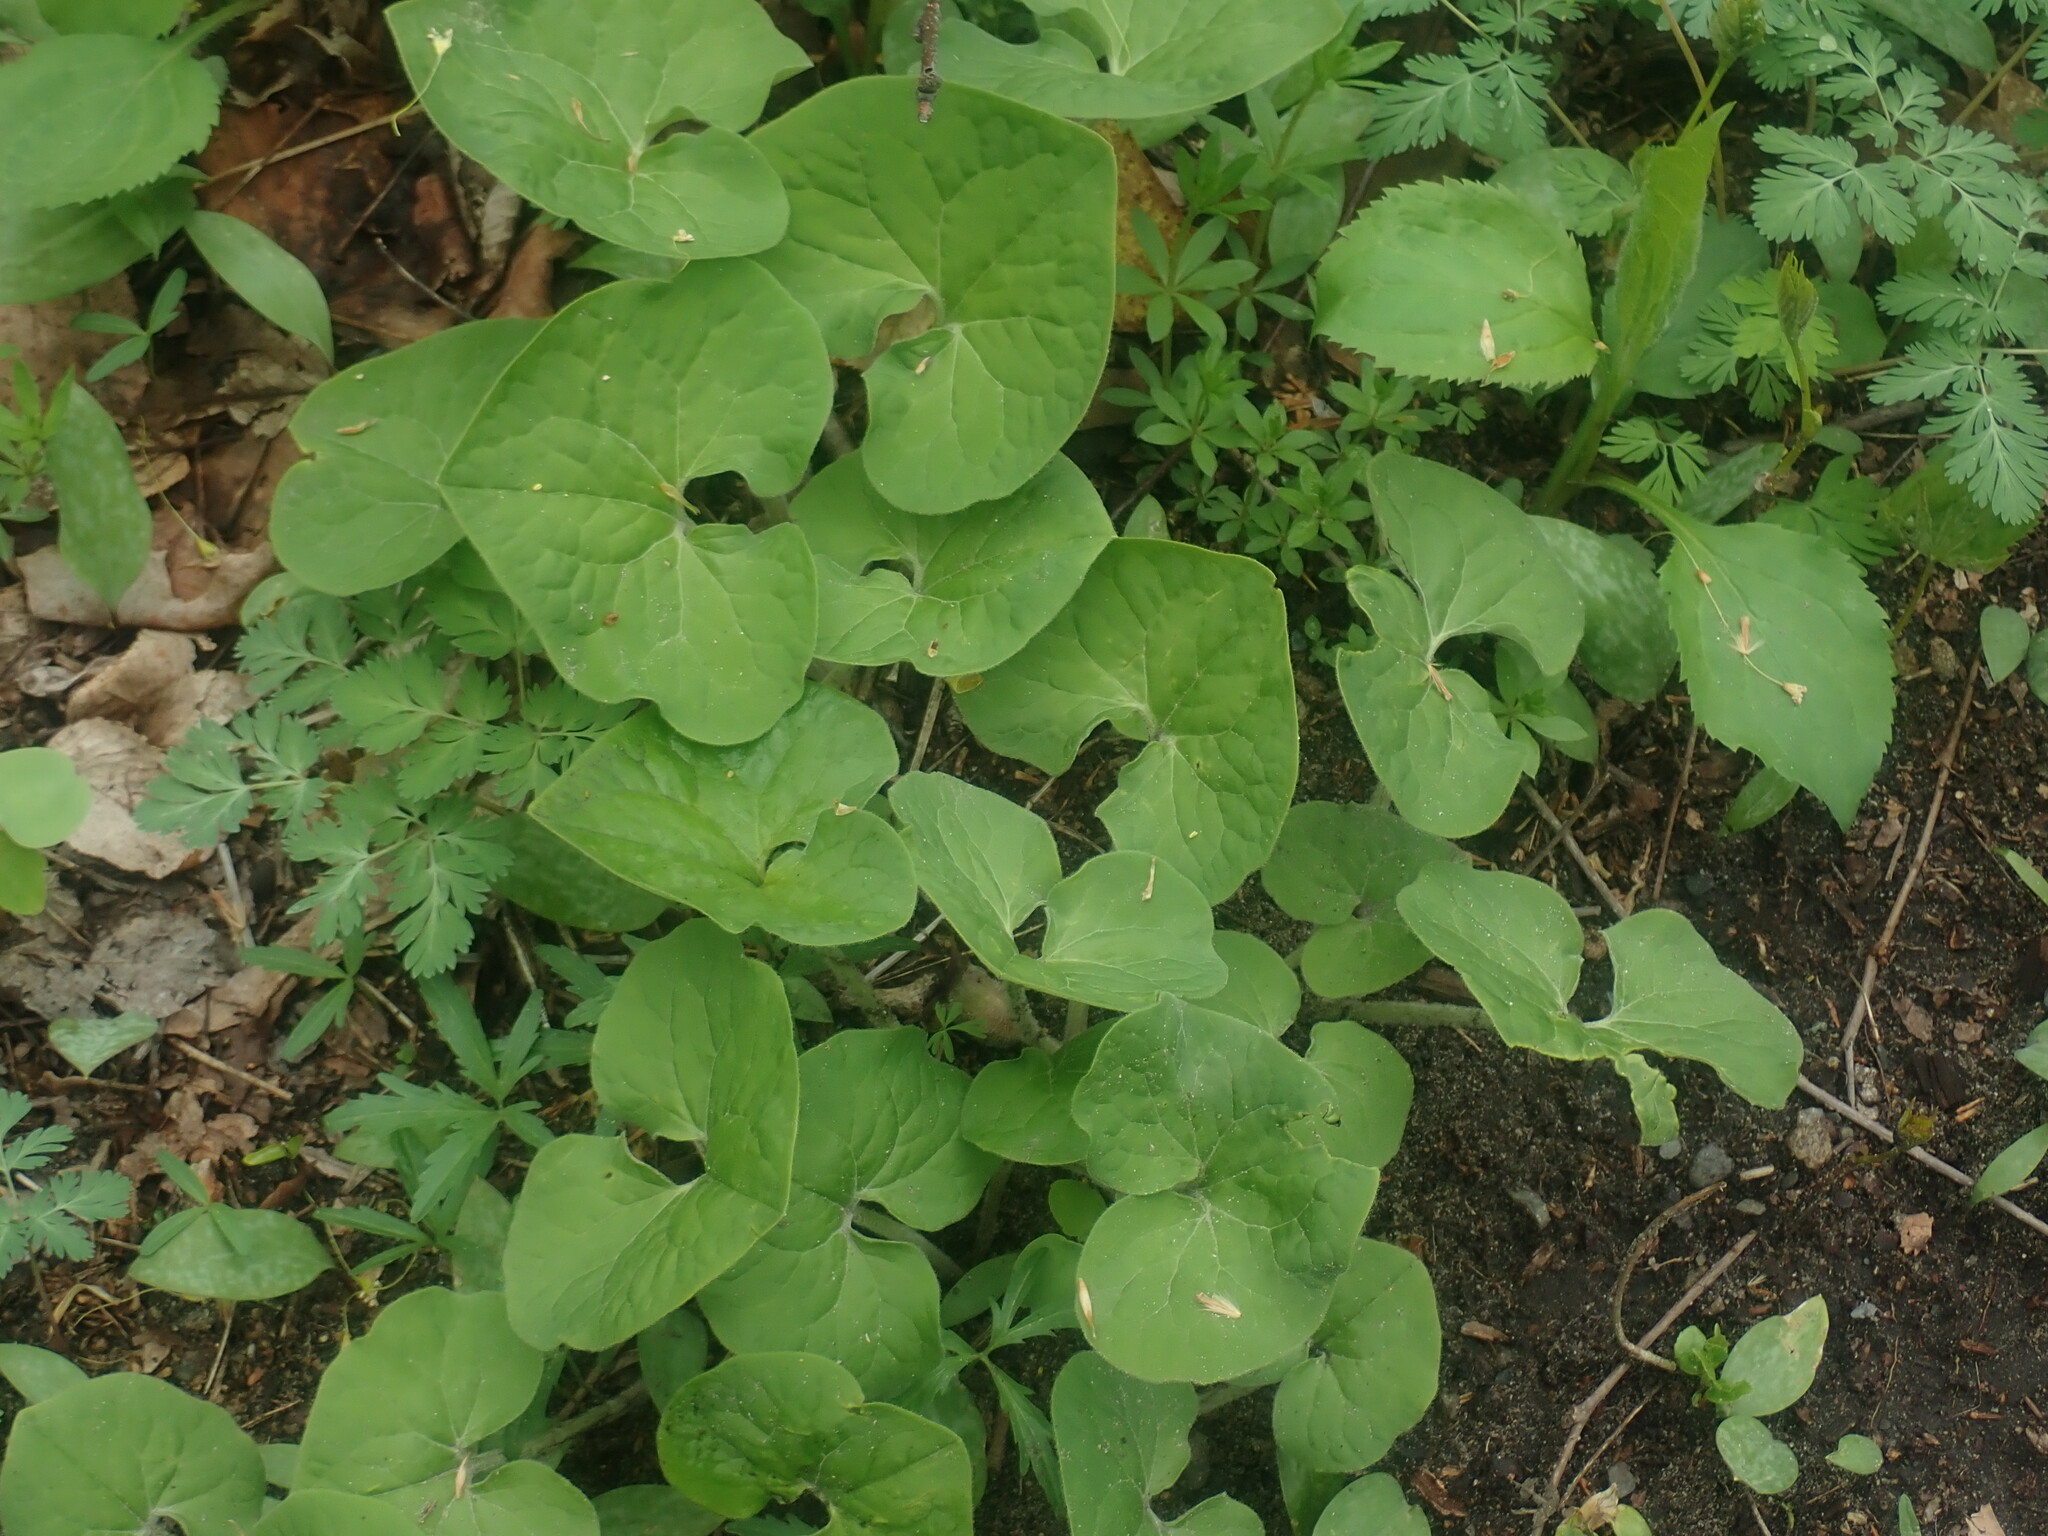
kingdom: Plantae
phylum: Tracheophyta
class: Magnoliopsida
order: Piperales
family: Aristolochiaceae
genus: Asarum
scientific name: Asarum canadense
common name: Wild ginger
